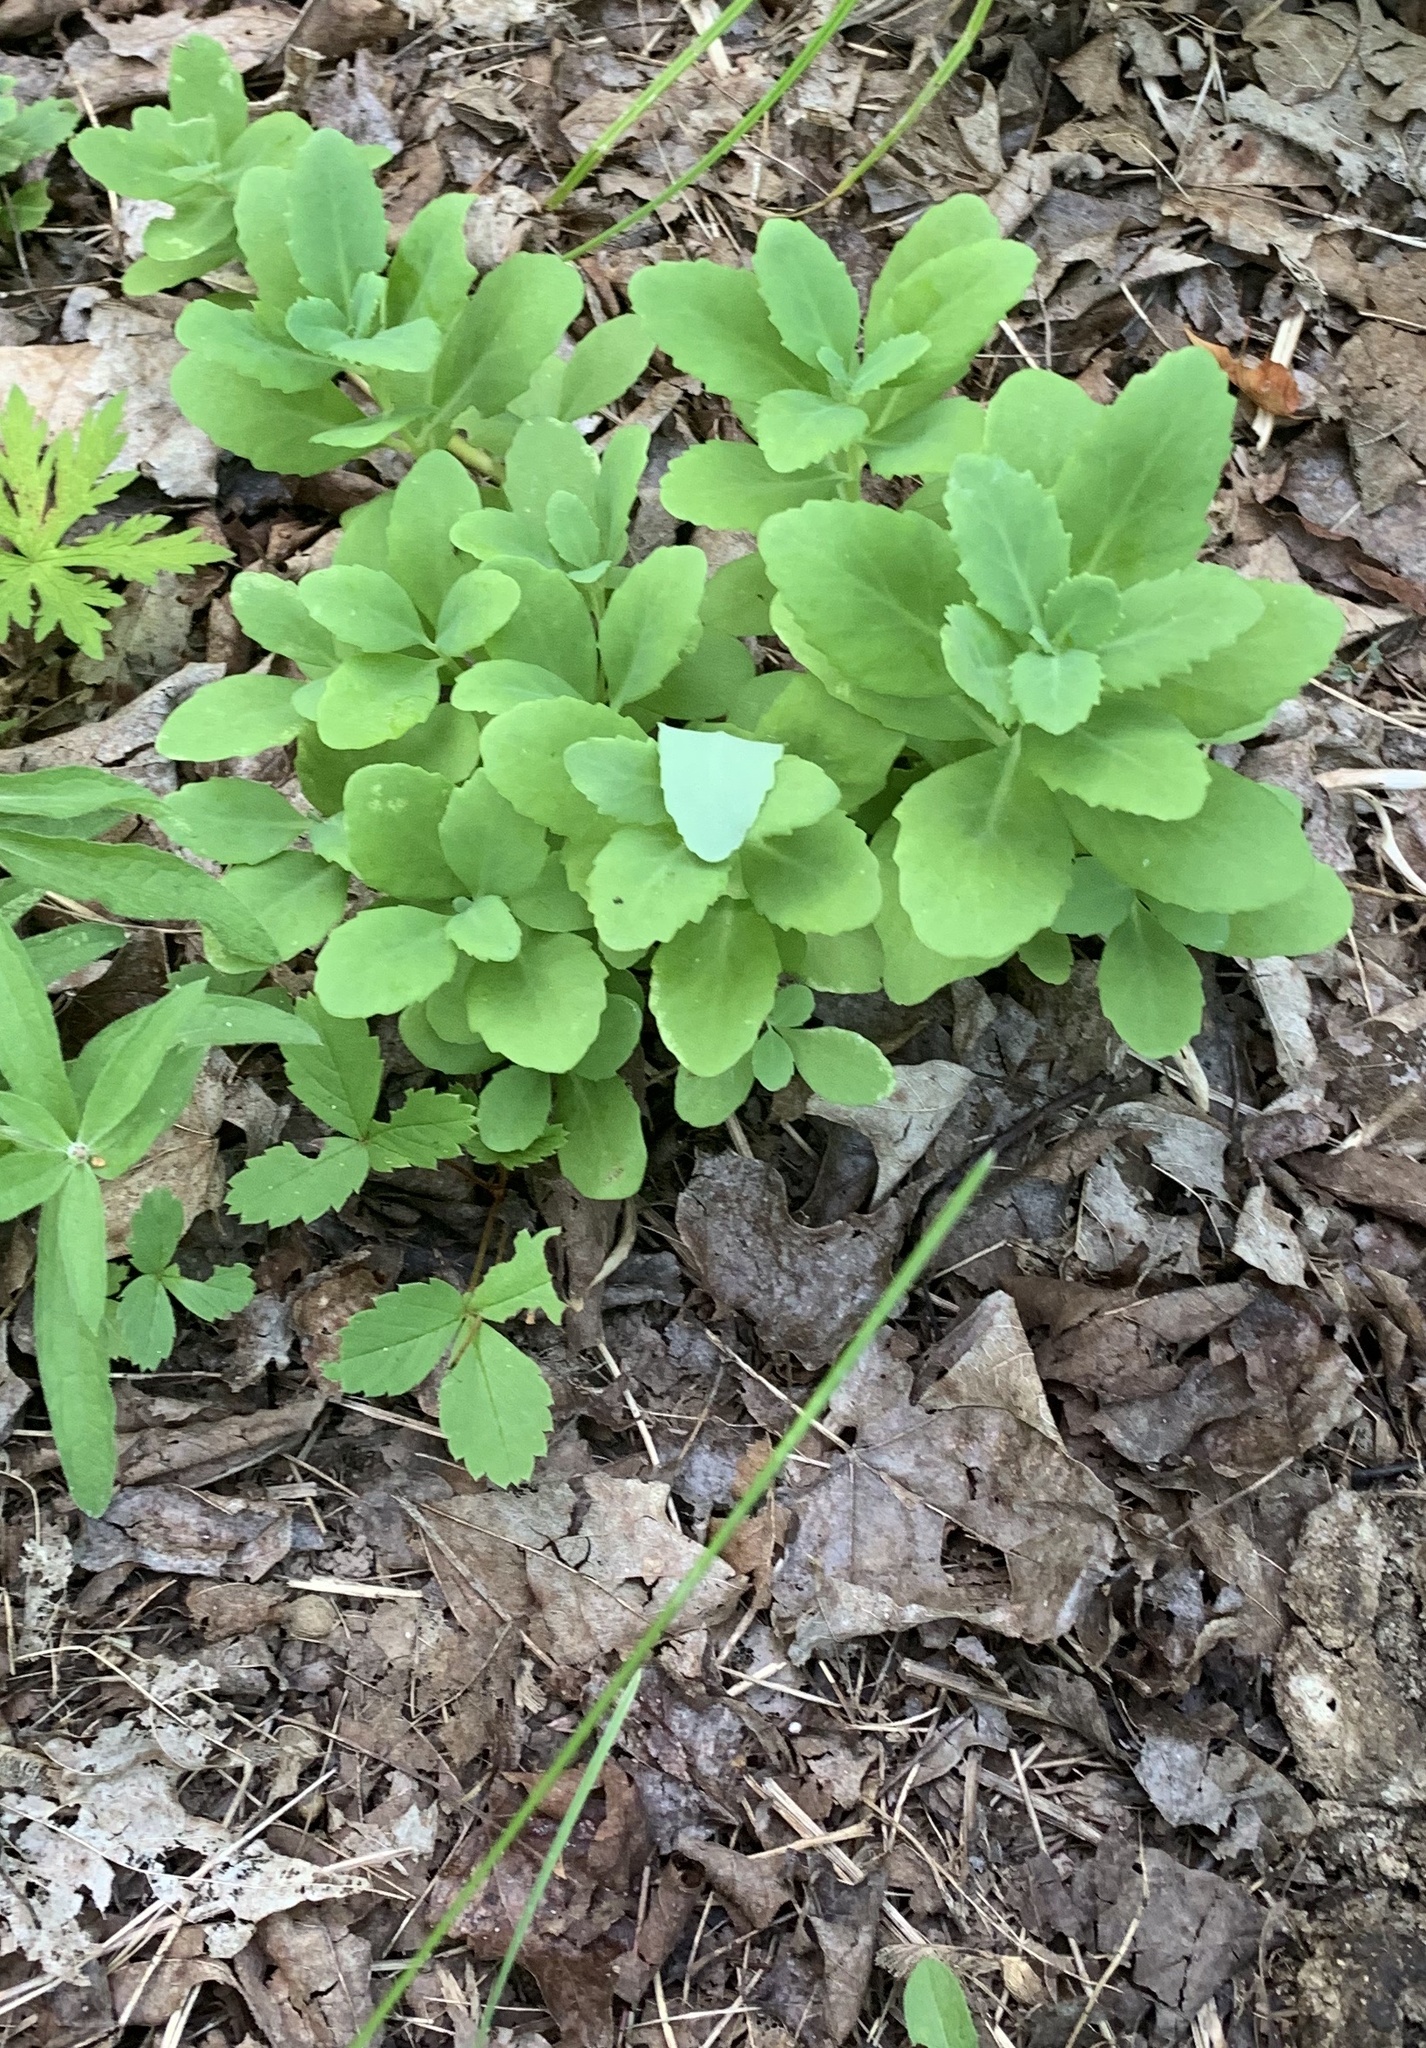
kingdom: Plantae
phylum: Tracheophyta
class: Magnoliopsida
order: Saxifragales
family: Crassulaceae
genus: Hylotelephium
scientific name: Hylotelephium telephium
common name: Live-forever
